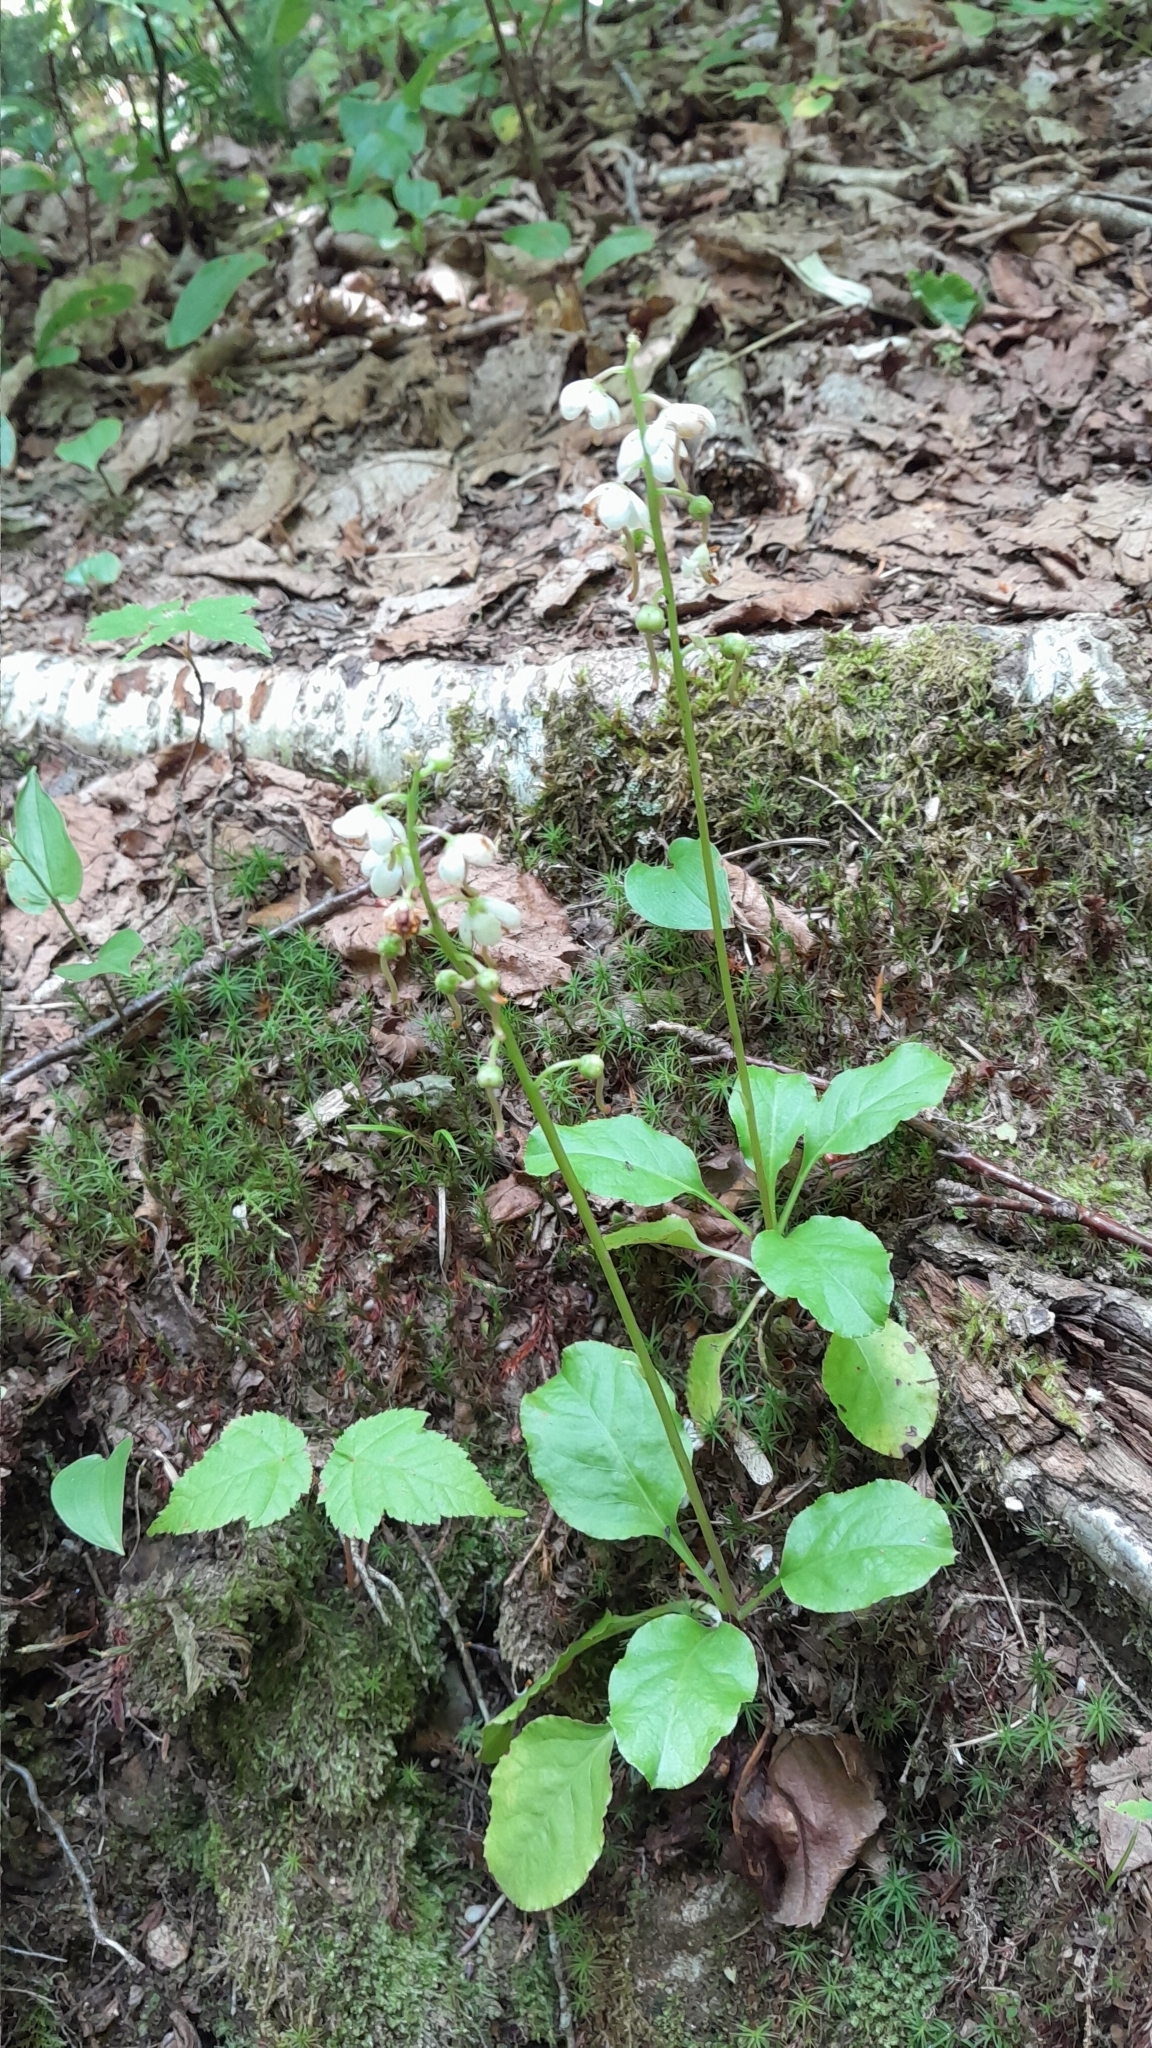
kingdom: Plantae
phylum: Tracheophyta
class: Magnoliopsida
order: Ericales
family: Ericaceae
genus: Pyrola
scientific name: Pyrola elliptica
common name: Shinleaf
